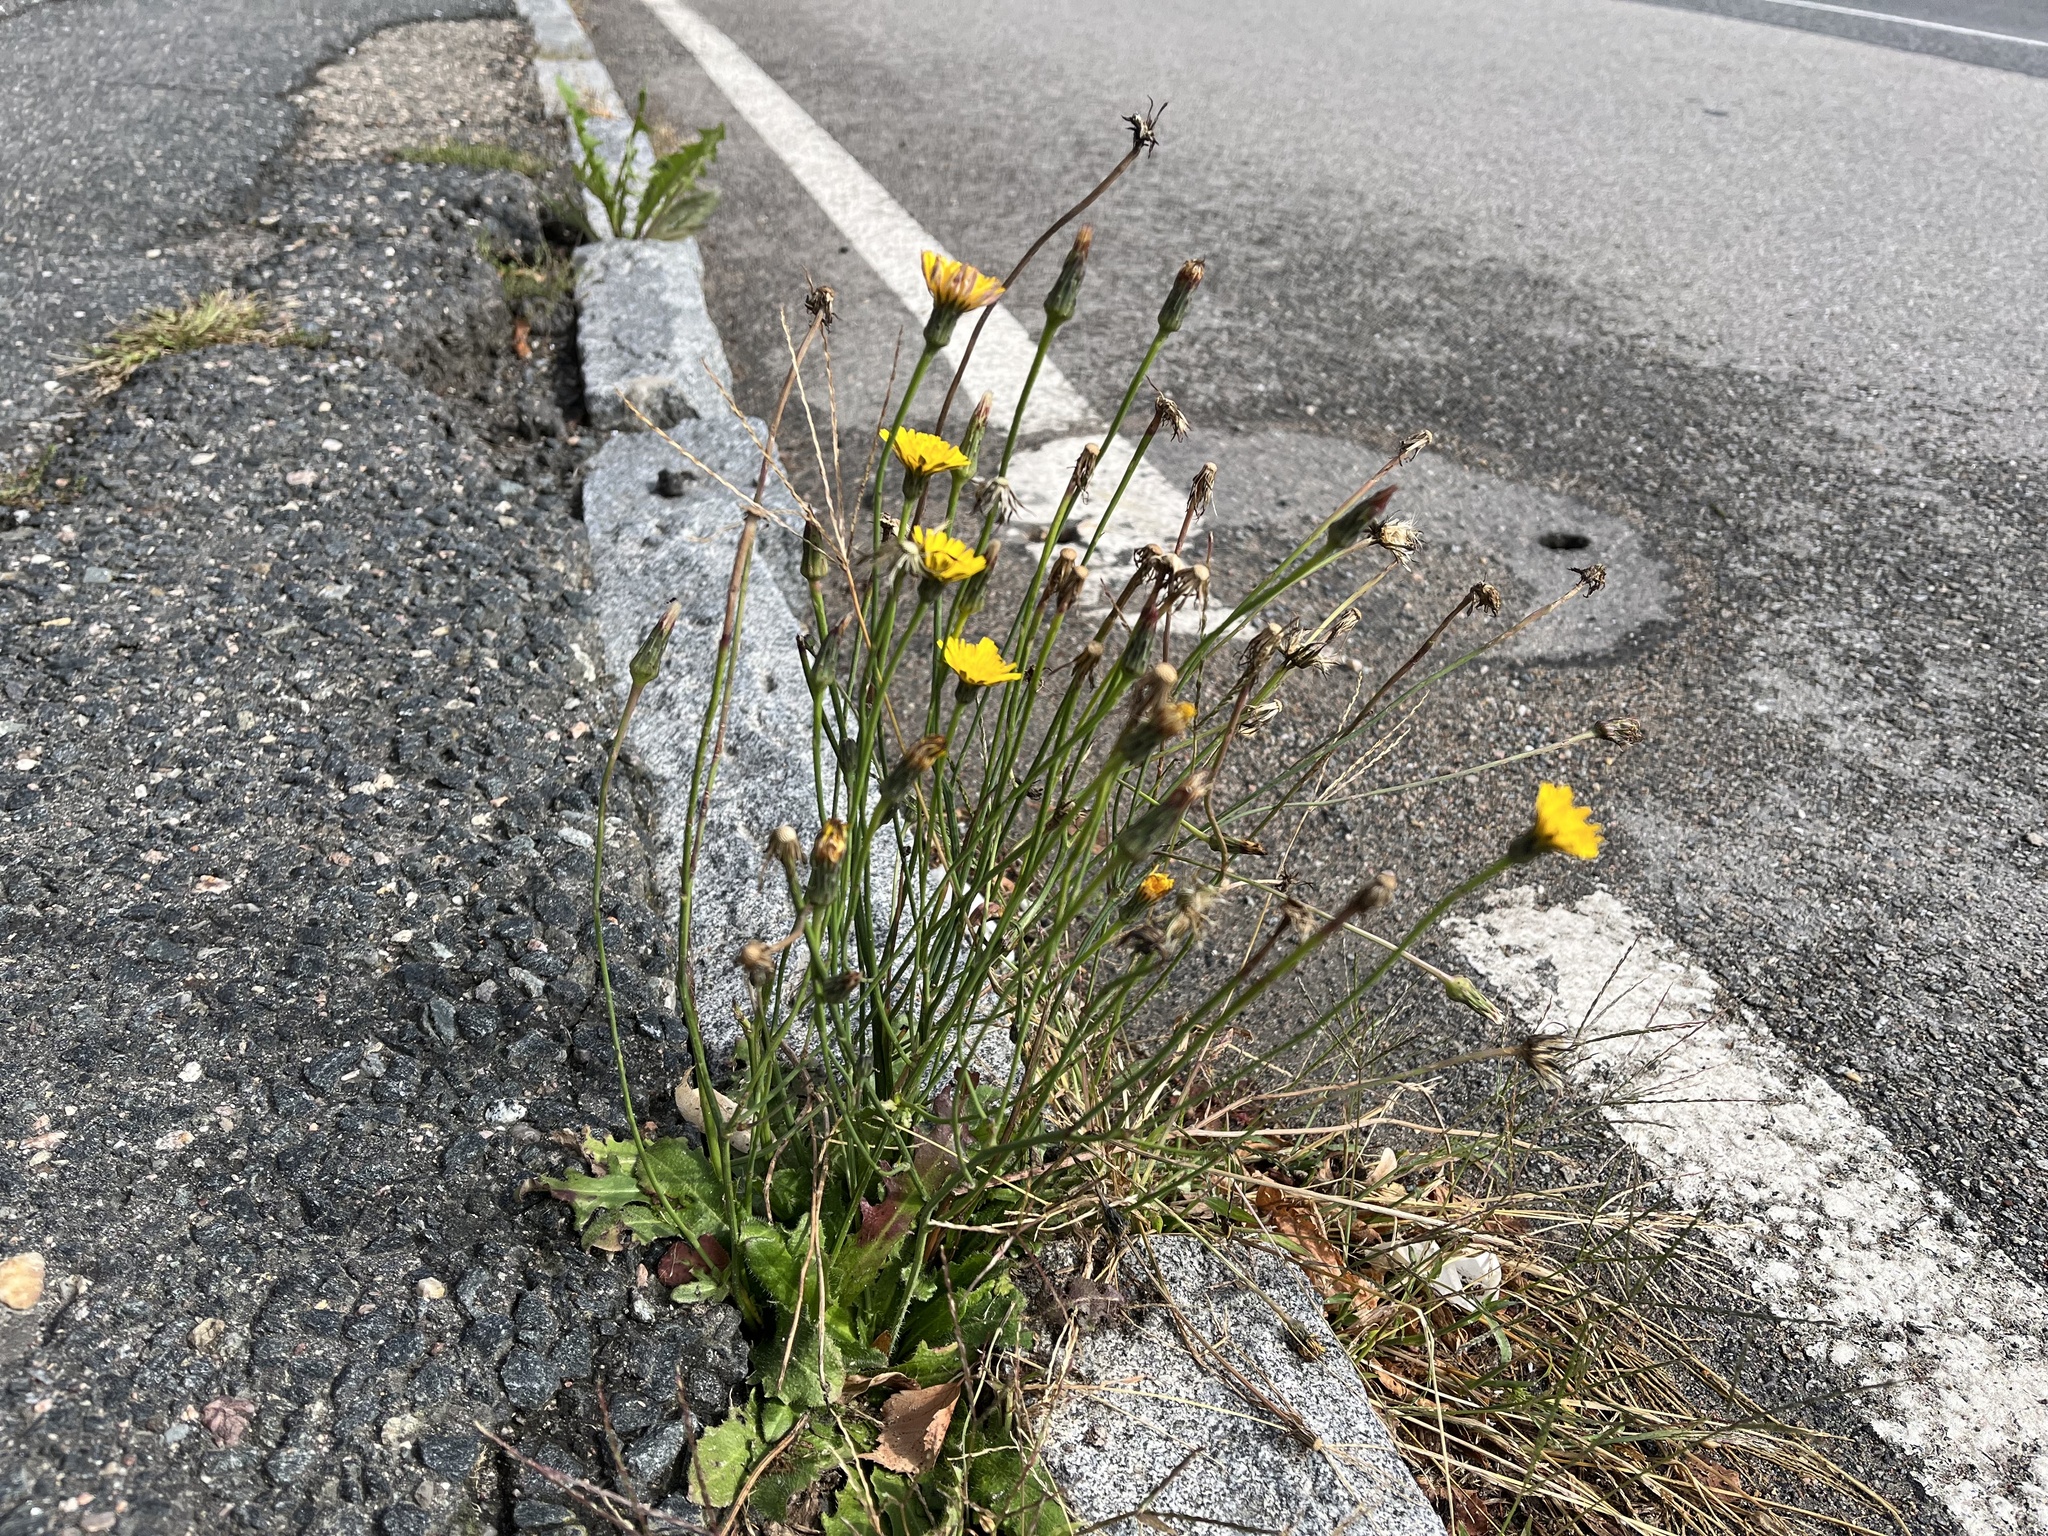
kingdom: Plantae
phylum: Tracheophyta
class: Magnoliopsida
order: Asterales
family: Asteraceae
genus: Hypochaeris
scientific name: Hypochaeris radicata
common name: Flatweed
